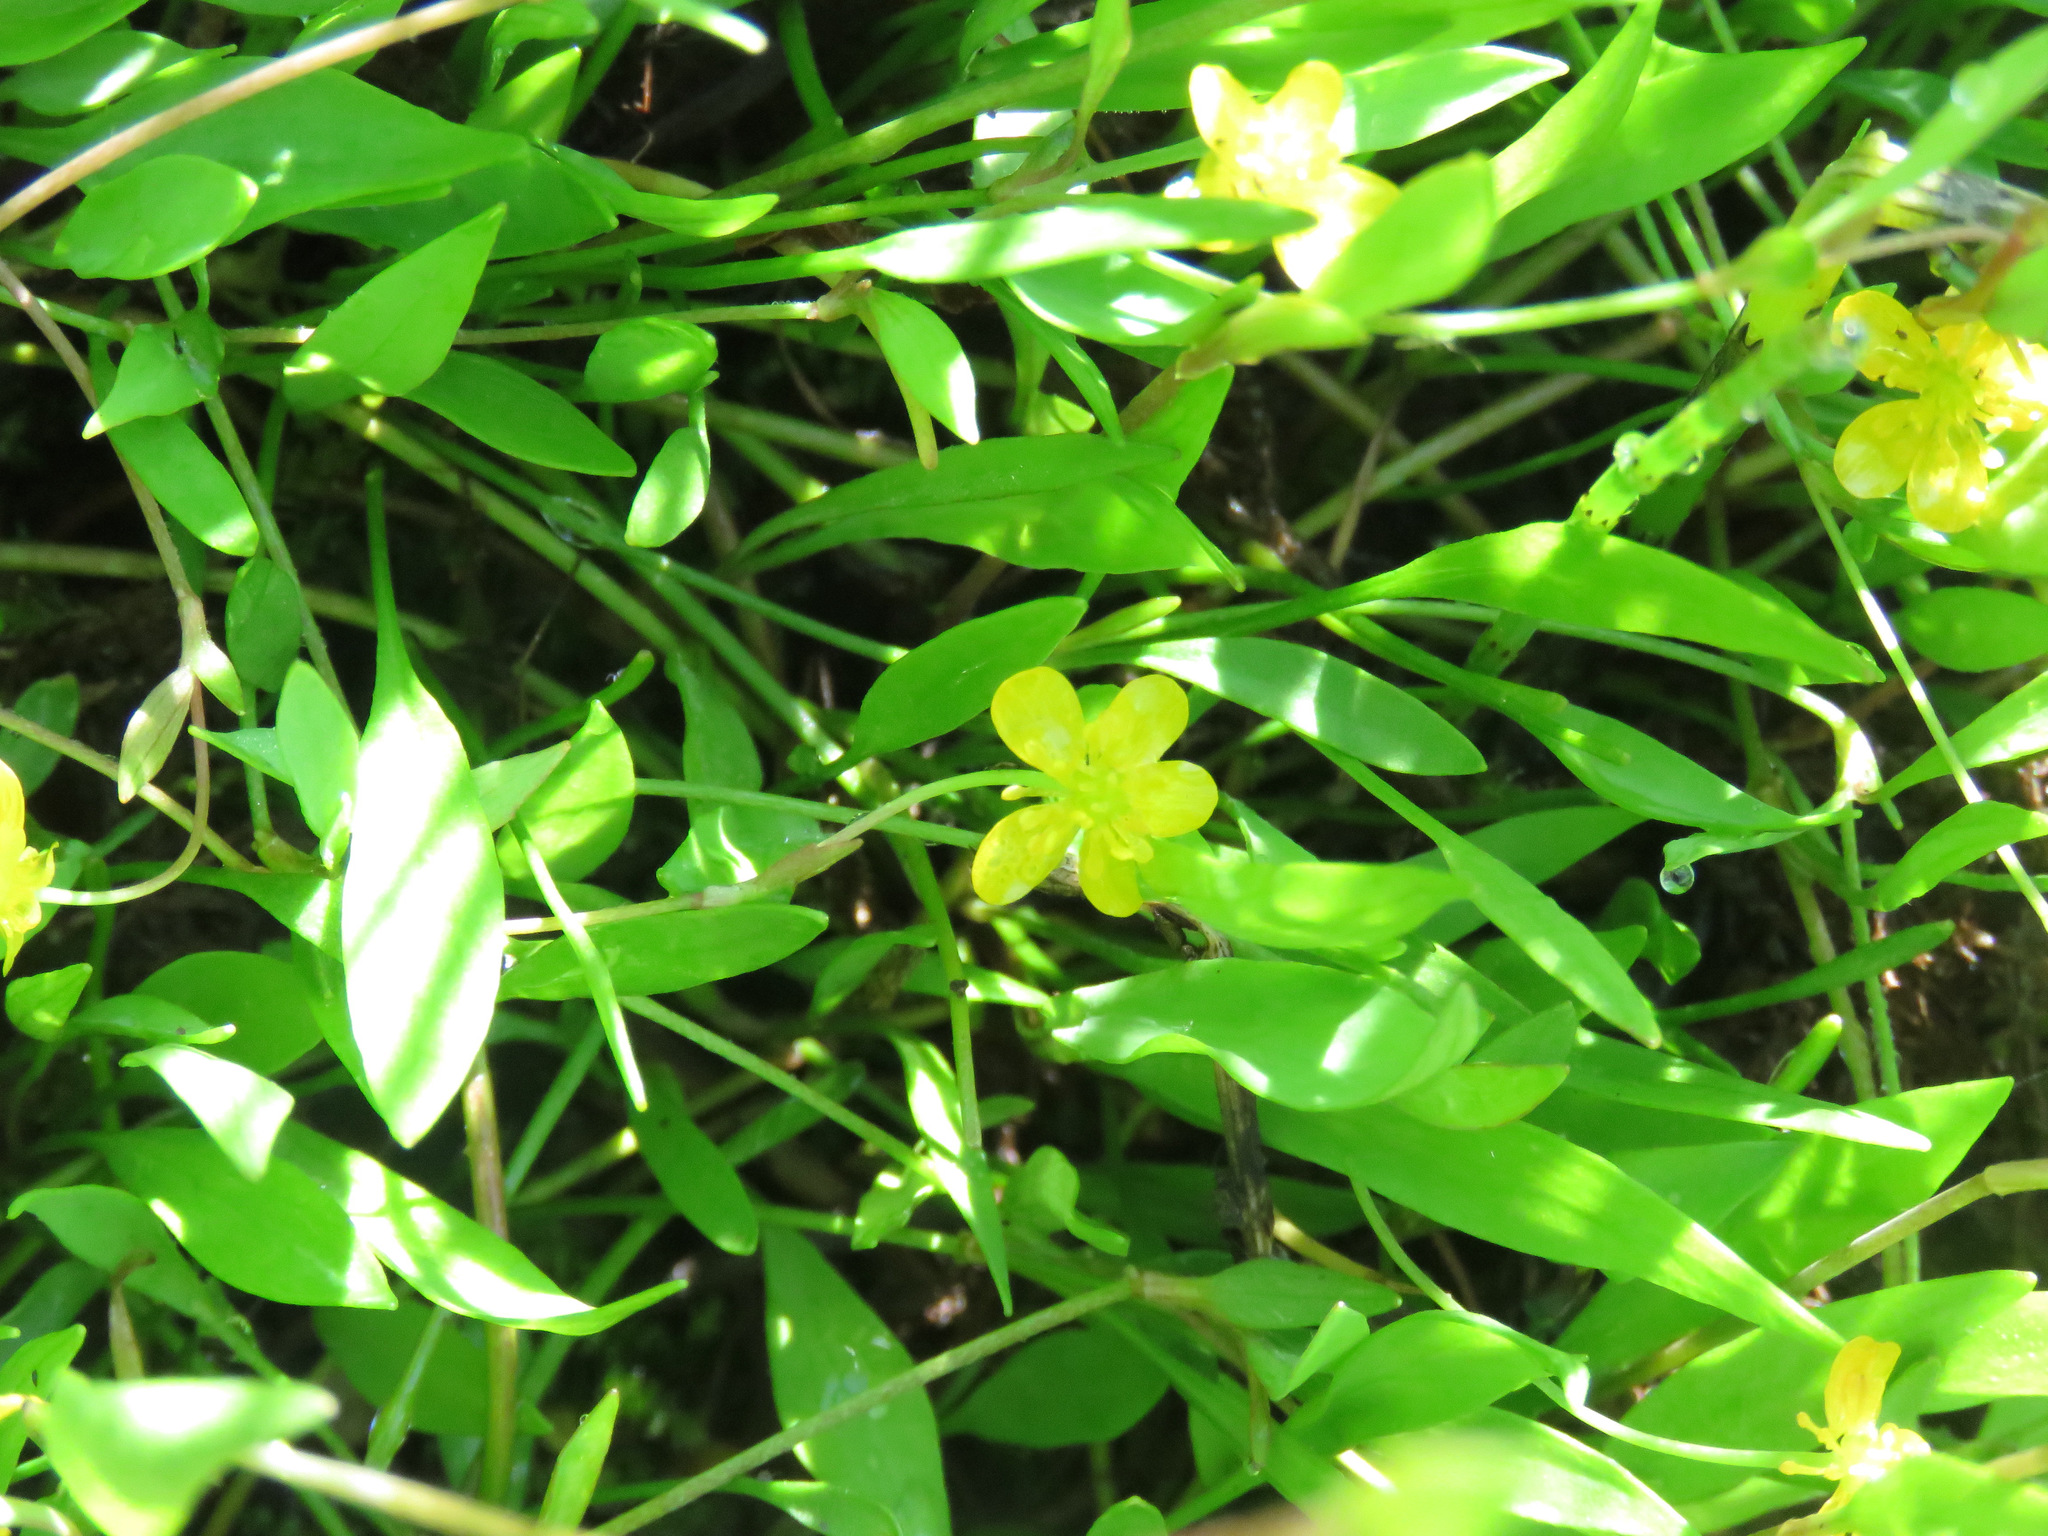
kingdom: Plantae
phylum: Tracheophyta
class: Magnoliopsida
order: Ranunculales
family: Ranunculaceae
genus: Ranunculus
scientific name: Ranunculus flammula
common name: Lesser spearwort
